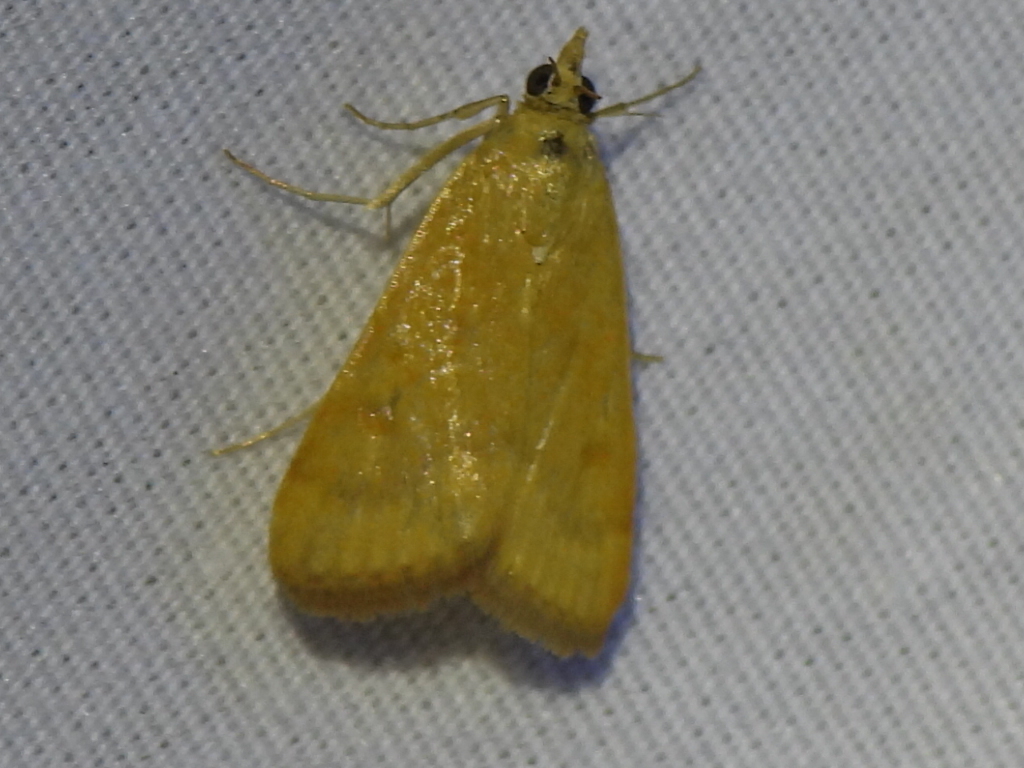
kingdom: Animalia
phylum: Arthropoda
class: Insecta
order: Lepidoptera
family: Crambidae
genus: Achyra
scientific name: Achyra rantalis
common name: Garden webworm
